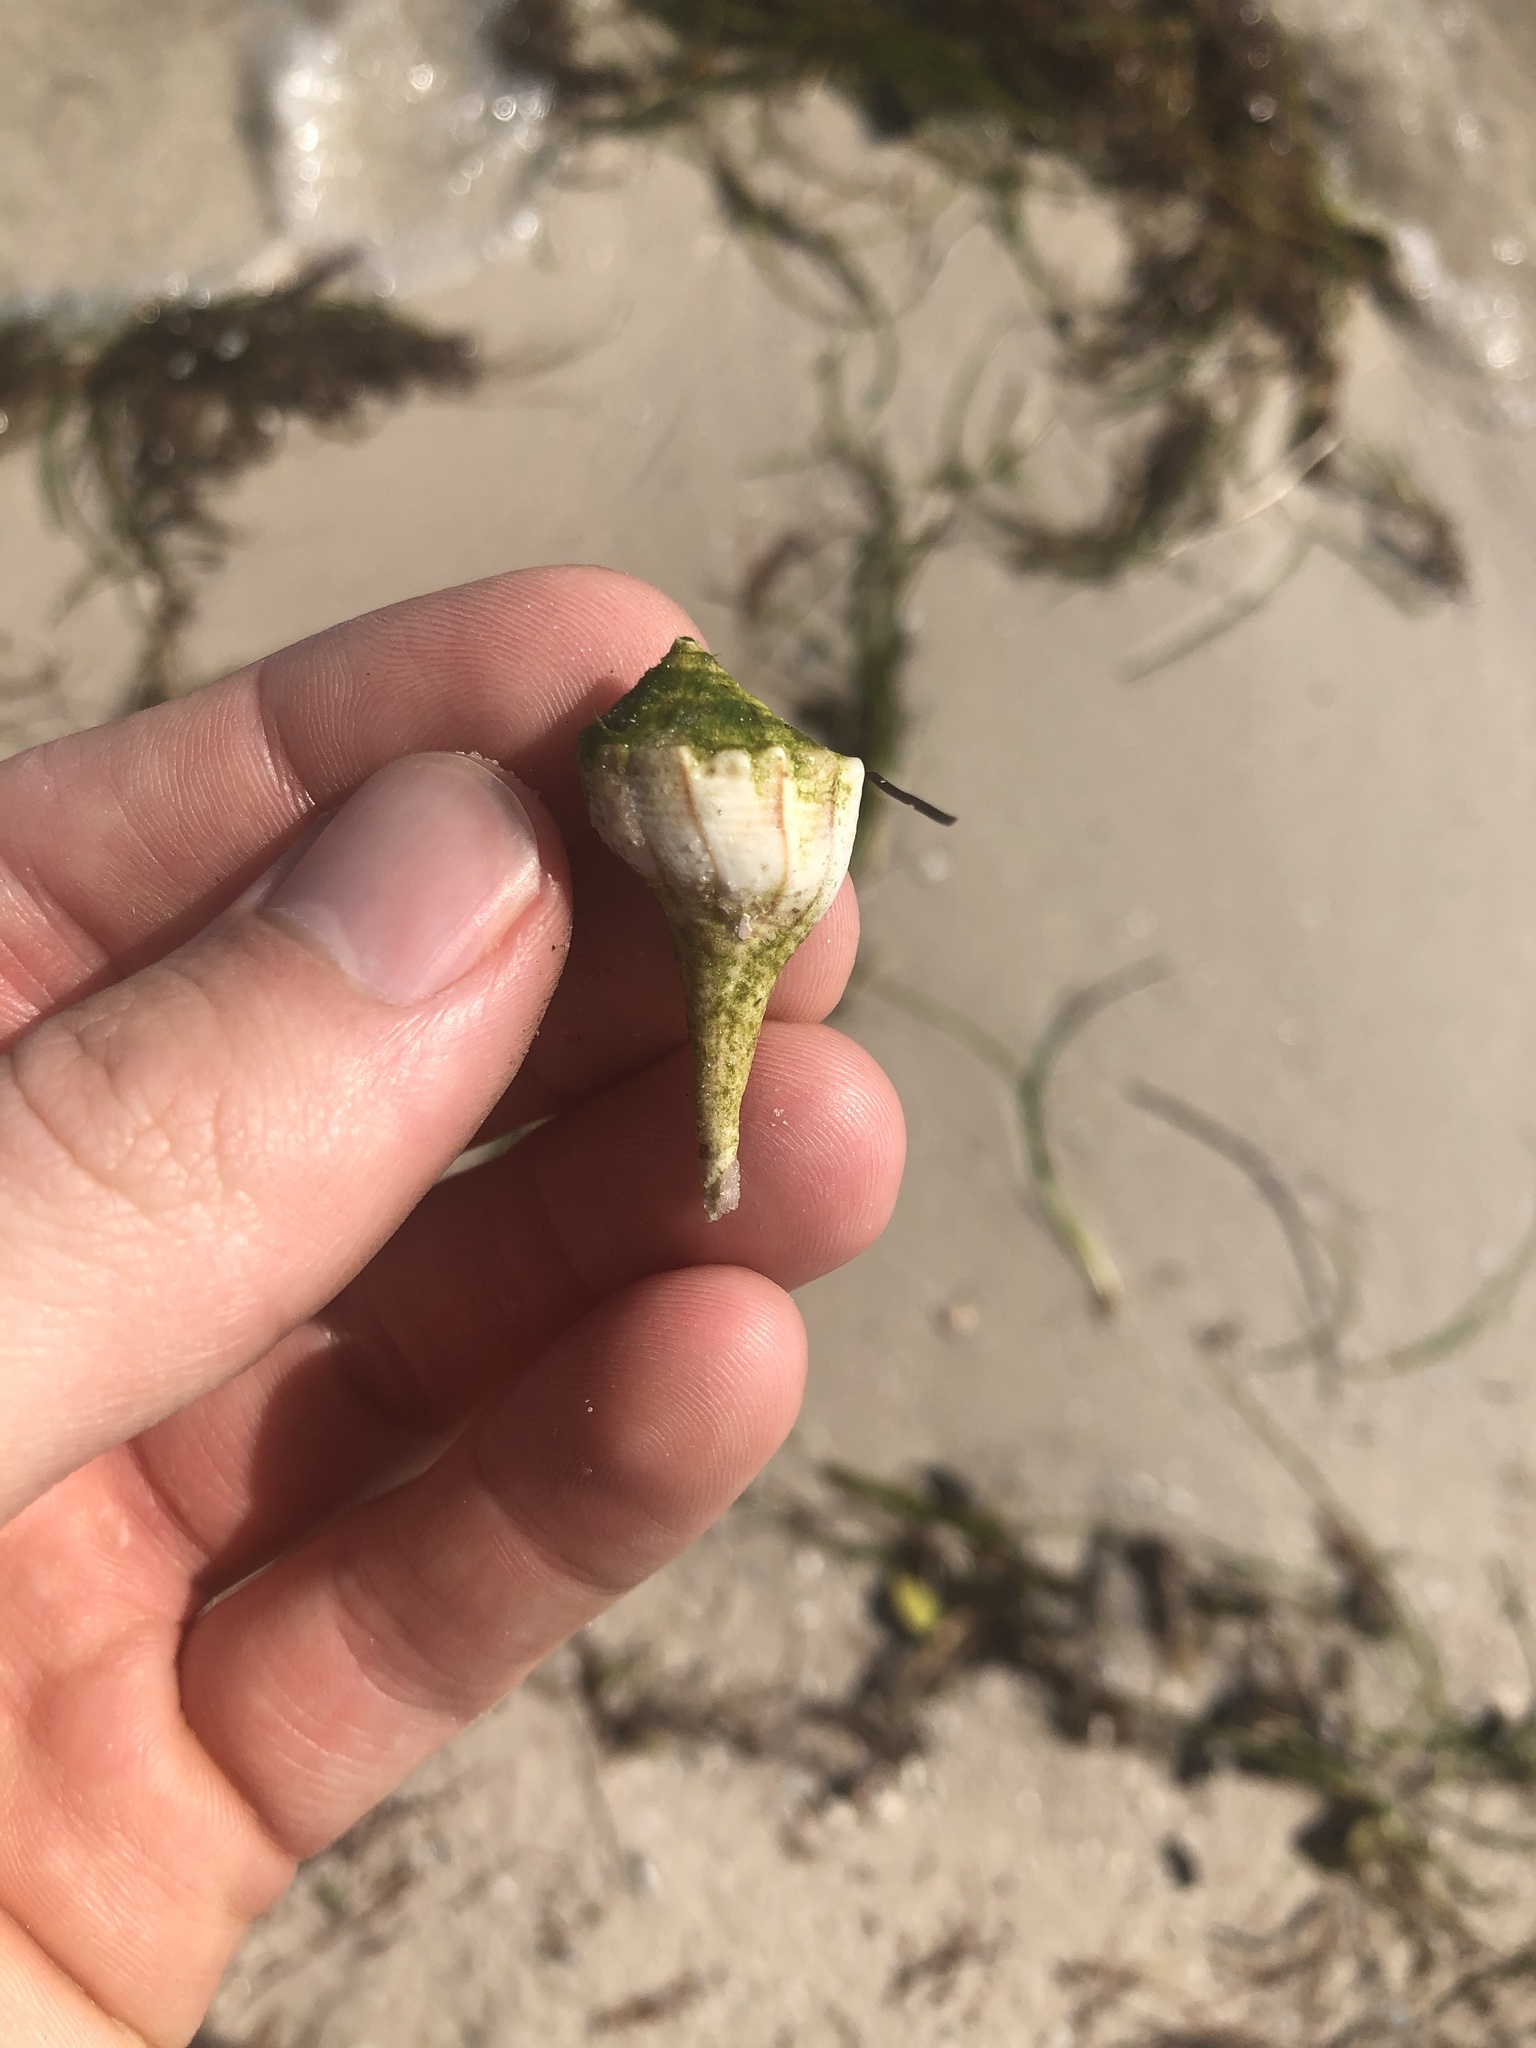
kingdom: Animalia
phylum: Mollusca
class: Gastropoda
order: Neogastropoda
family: Busyconidae
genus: Sinistrofulgur
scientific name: Sinistrofulgur sinistrum
